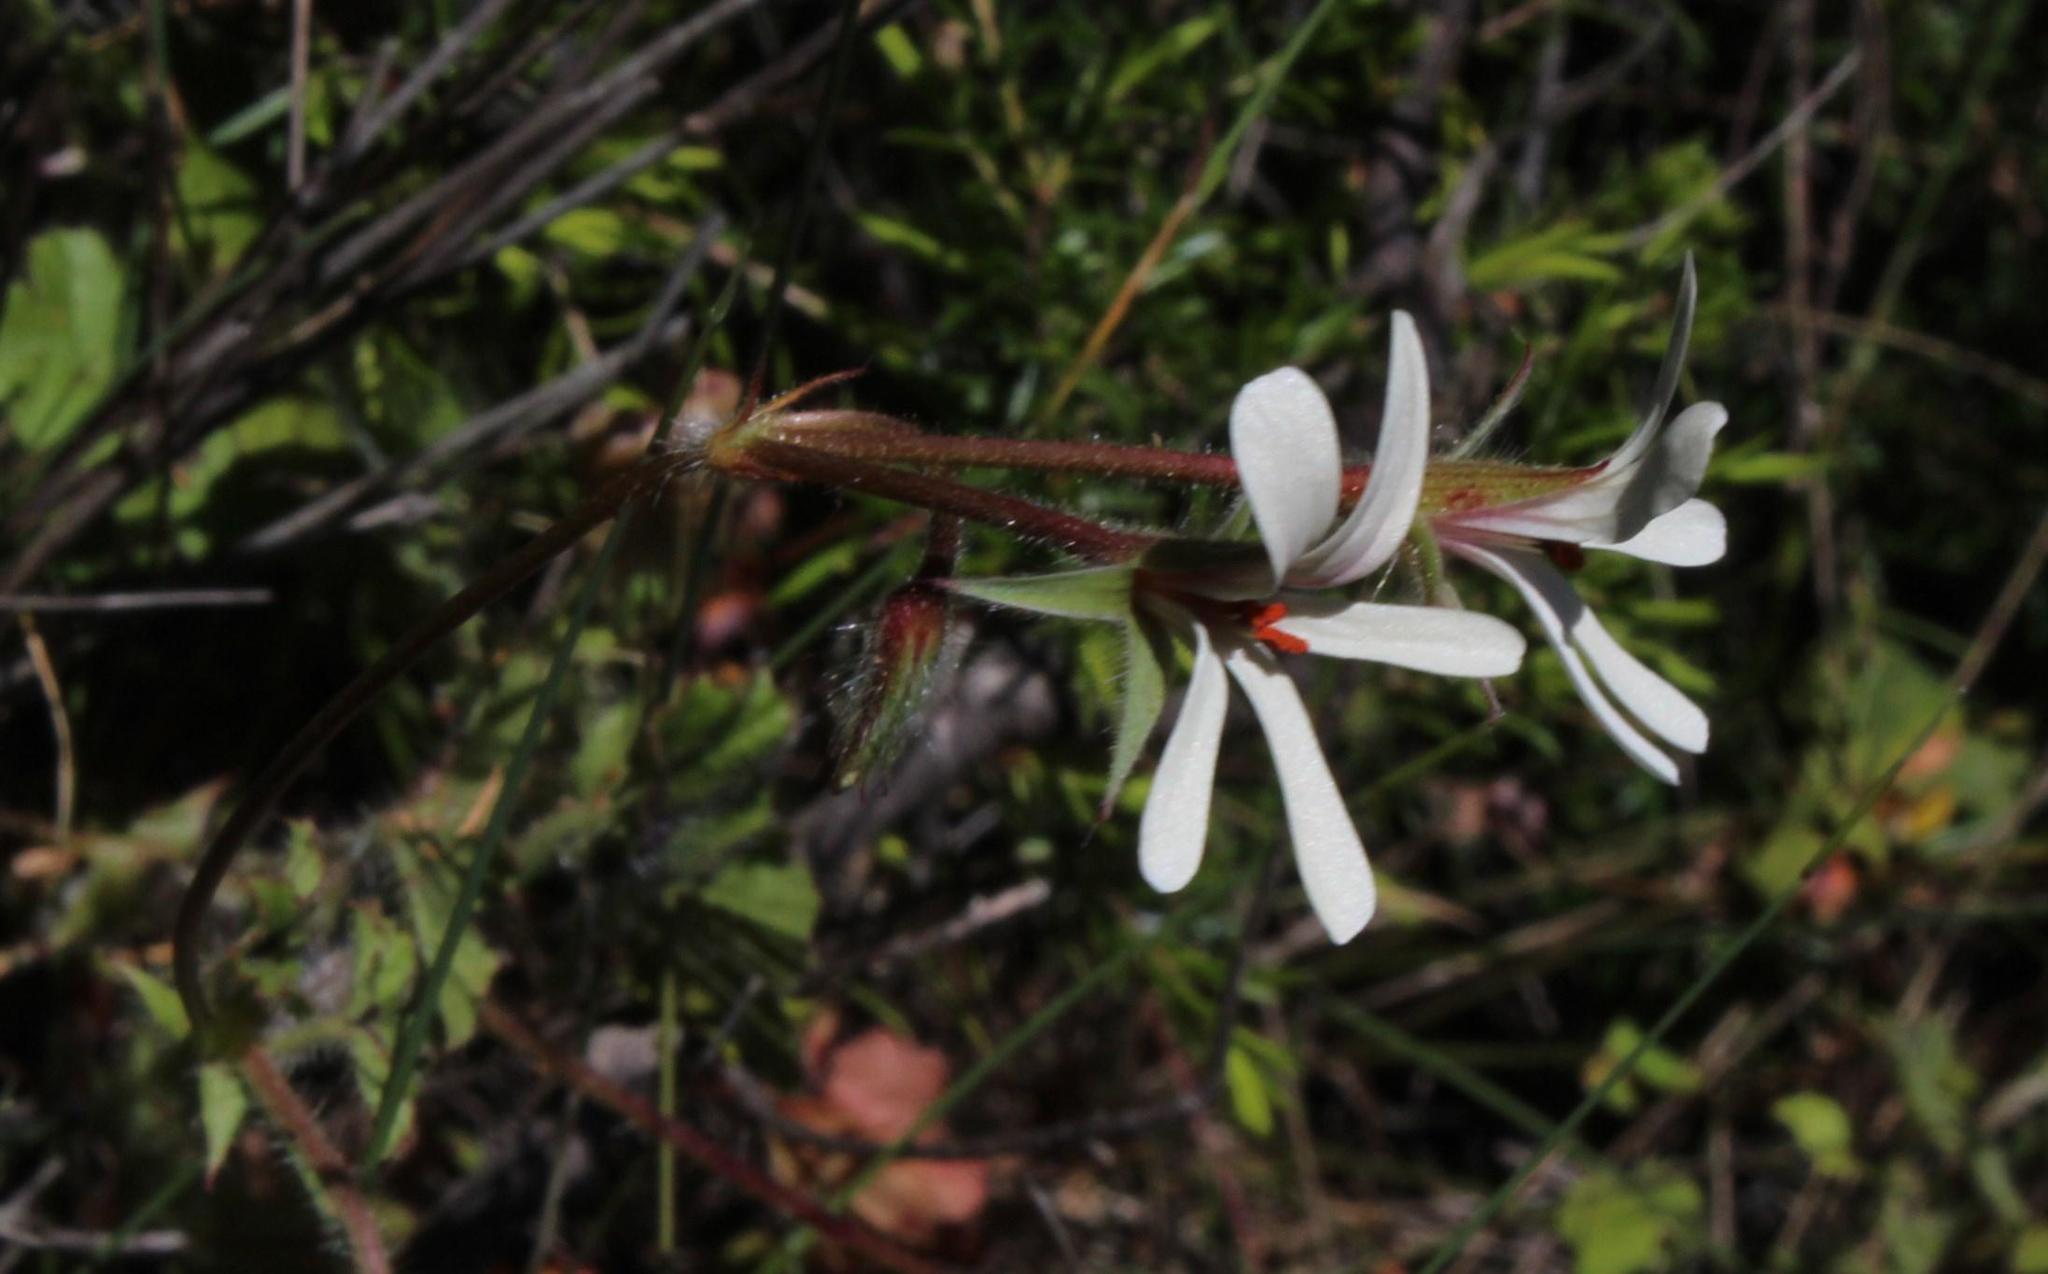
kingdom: Plantae
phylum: Tracheophyta
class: Magnoliopsida
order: Geraniales
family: Geraniaceae
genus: Pelargonium
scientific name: Pelargonium elongatum
